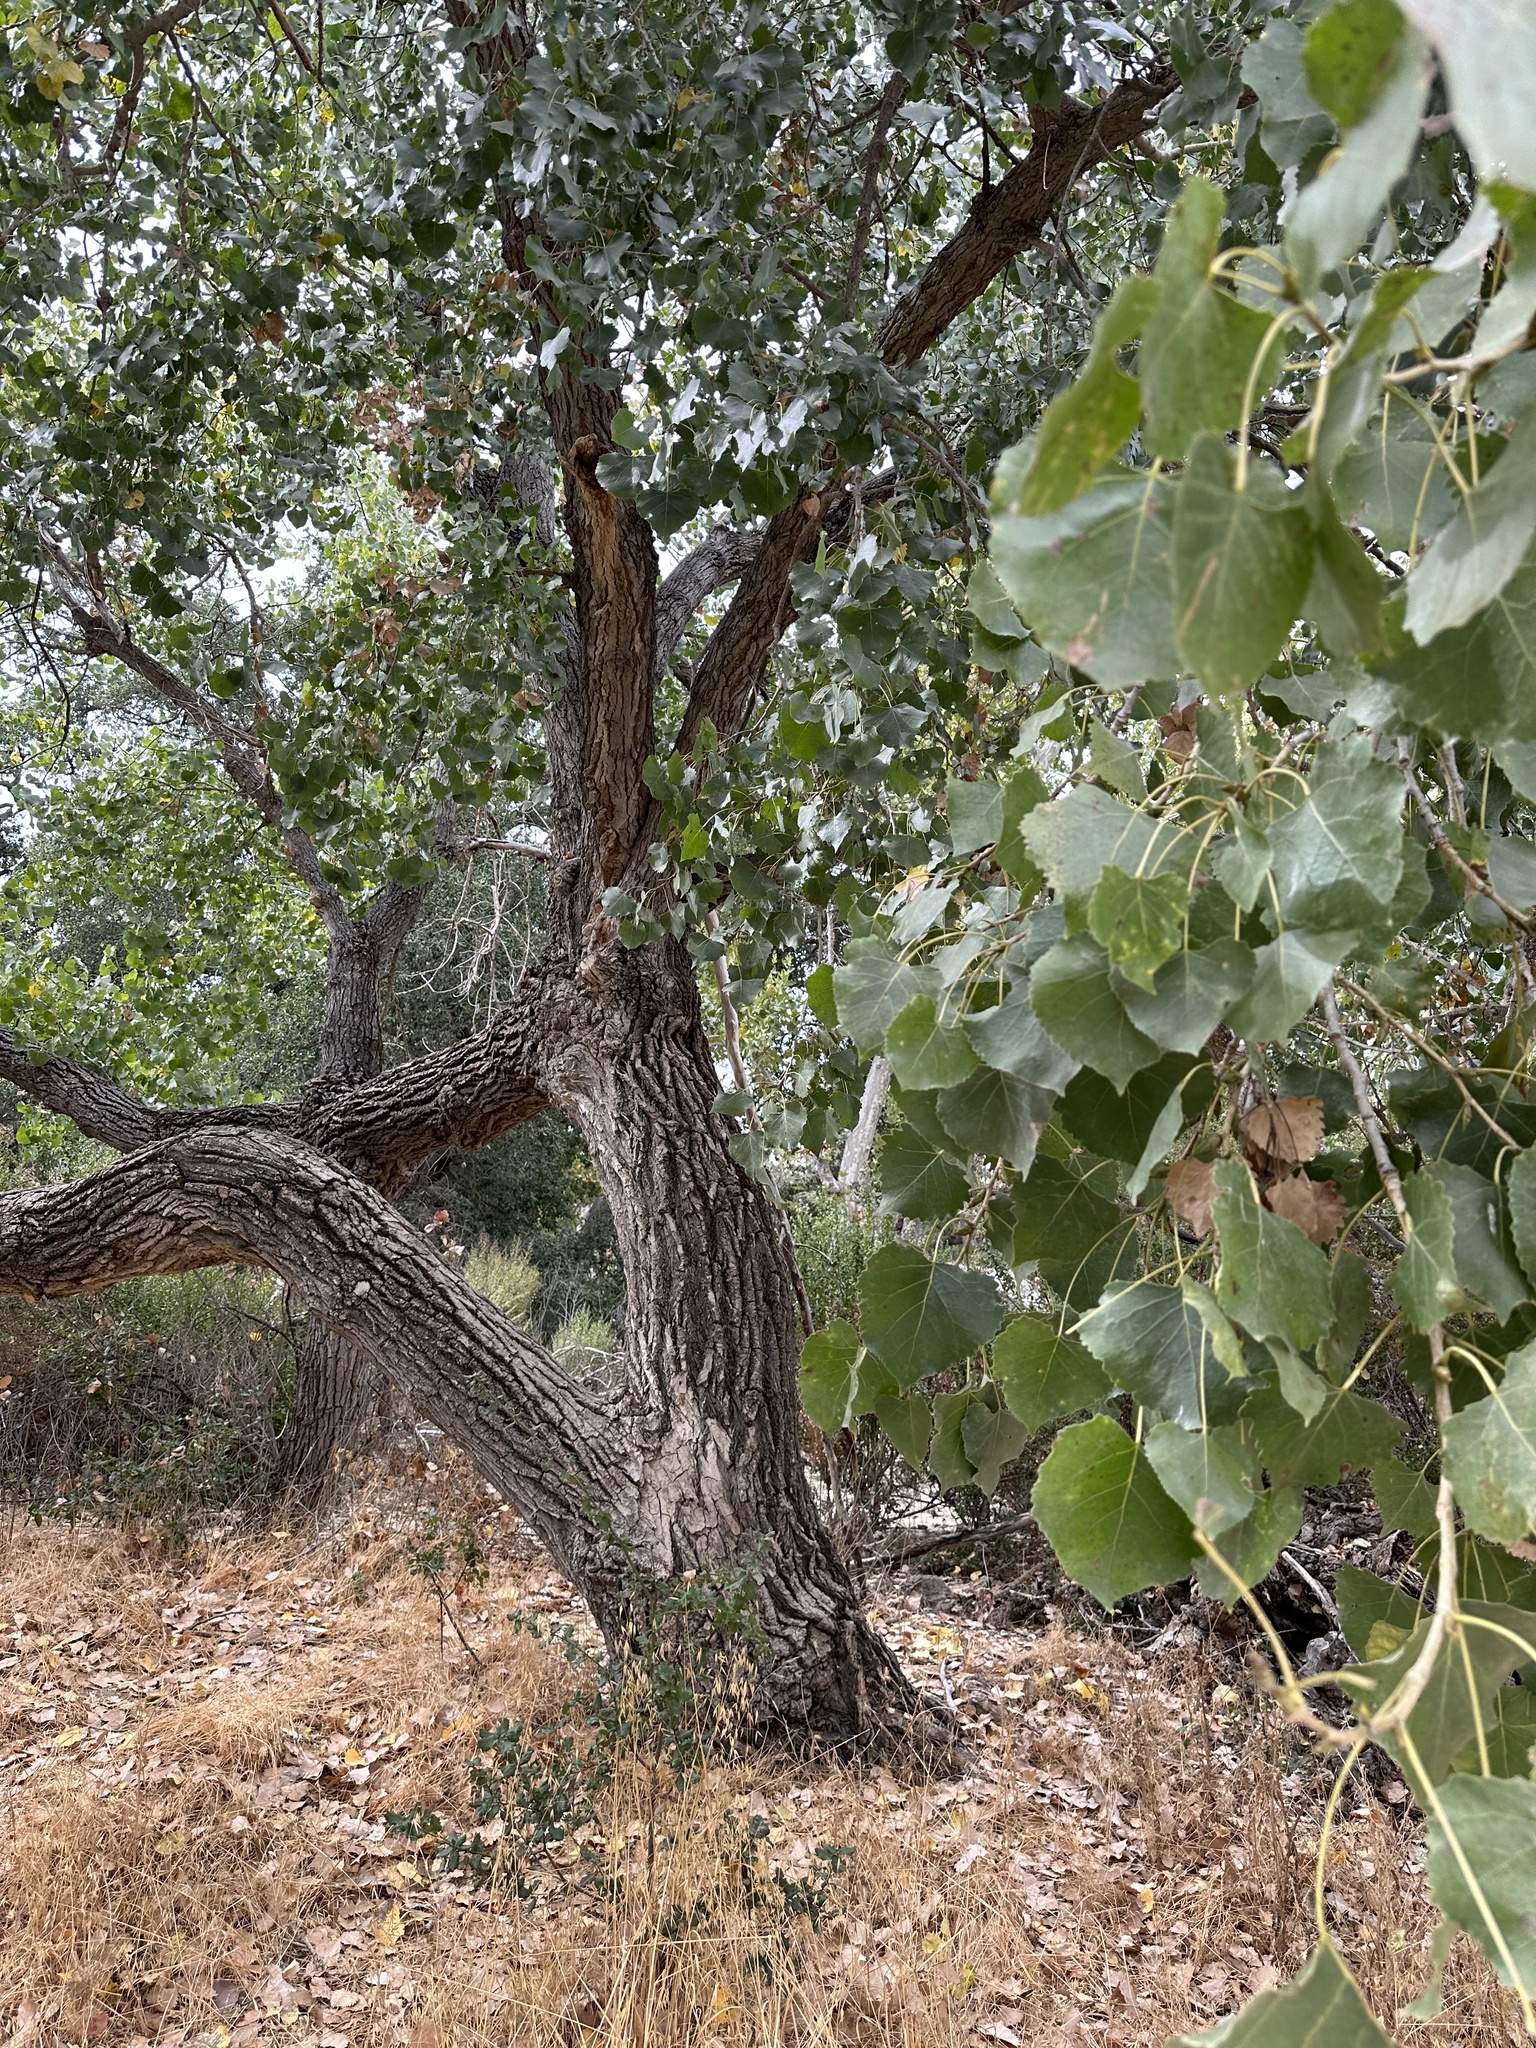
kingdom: Plantae
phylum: Tracheophyta
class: Magnoliopsida
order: Malpighiales
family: Salicaceae
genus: Populus
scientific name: Populus fremontii
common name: Fremont's cottonwood
